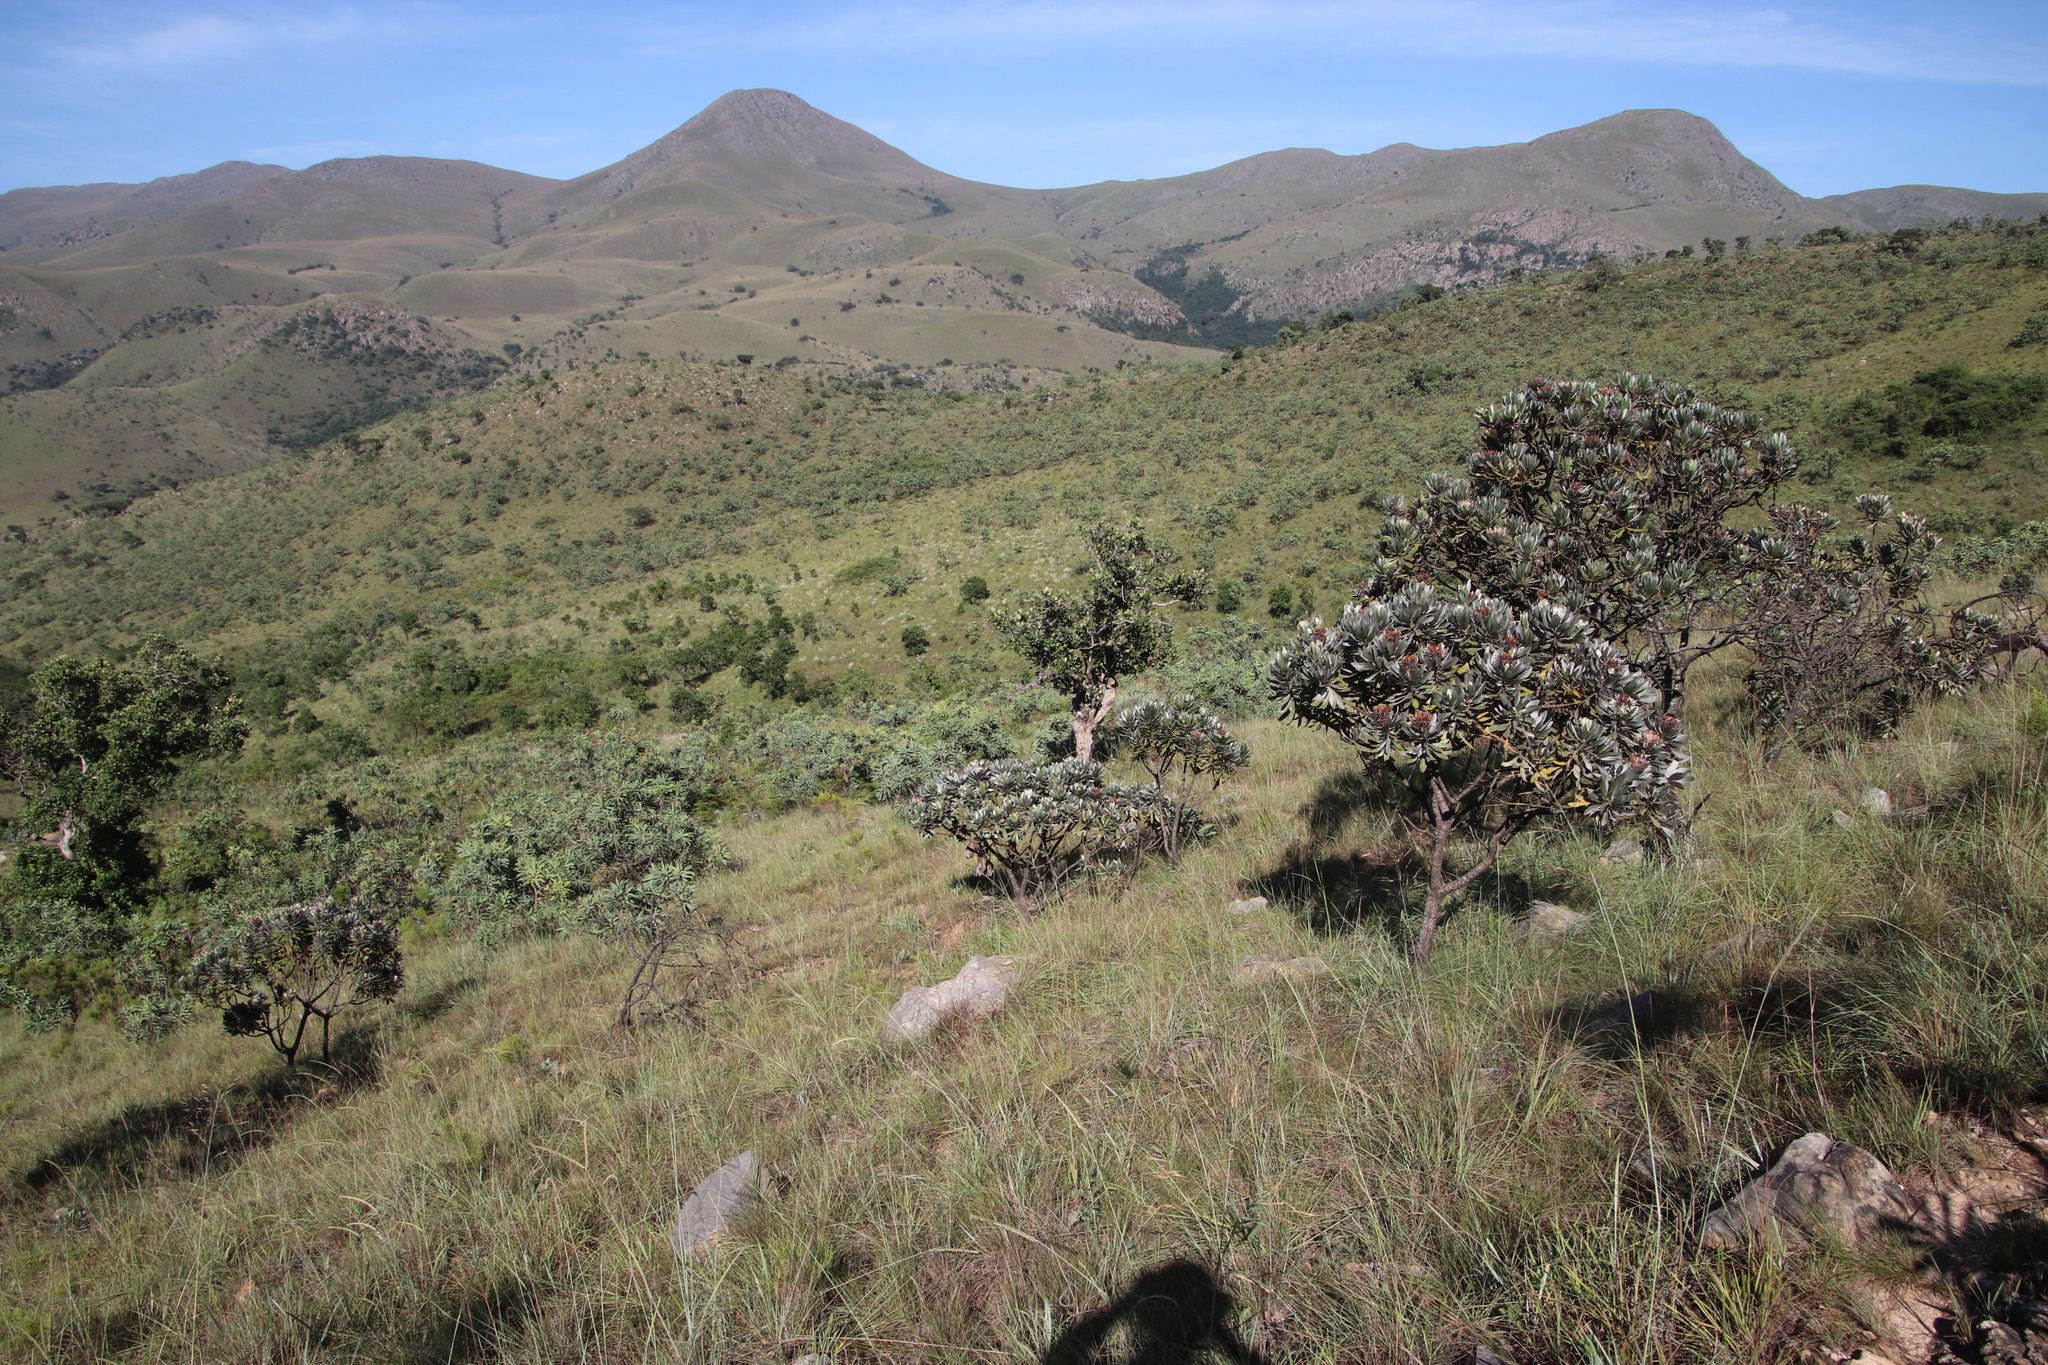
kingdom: Plantae
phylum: Tracheophyta
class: Magnoliopsida
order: Proteales
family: Proteaceae
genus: Protea
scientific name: Protea roupelliae
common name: Silver sugarbush
